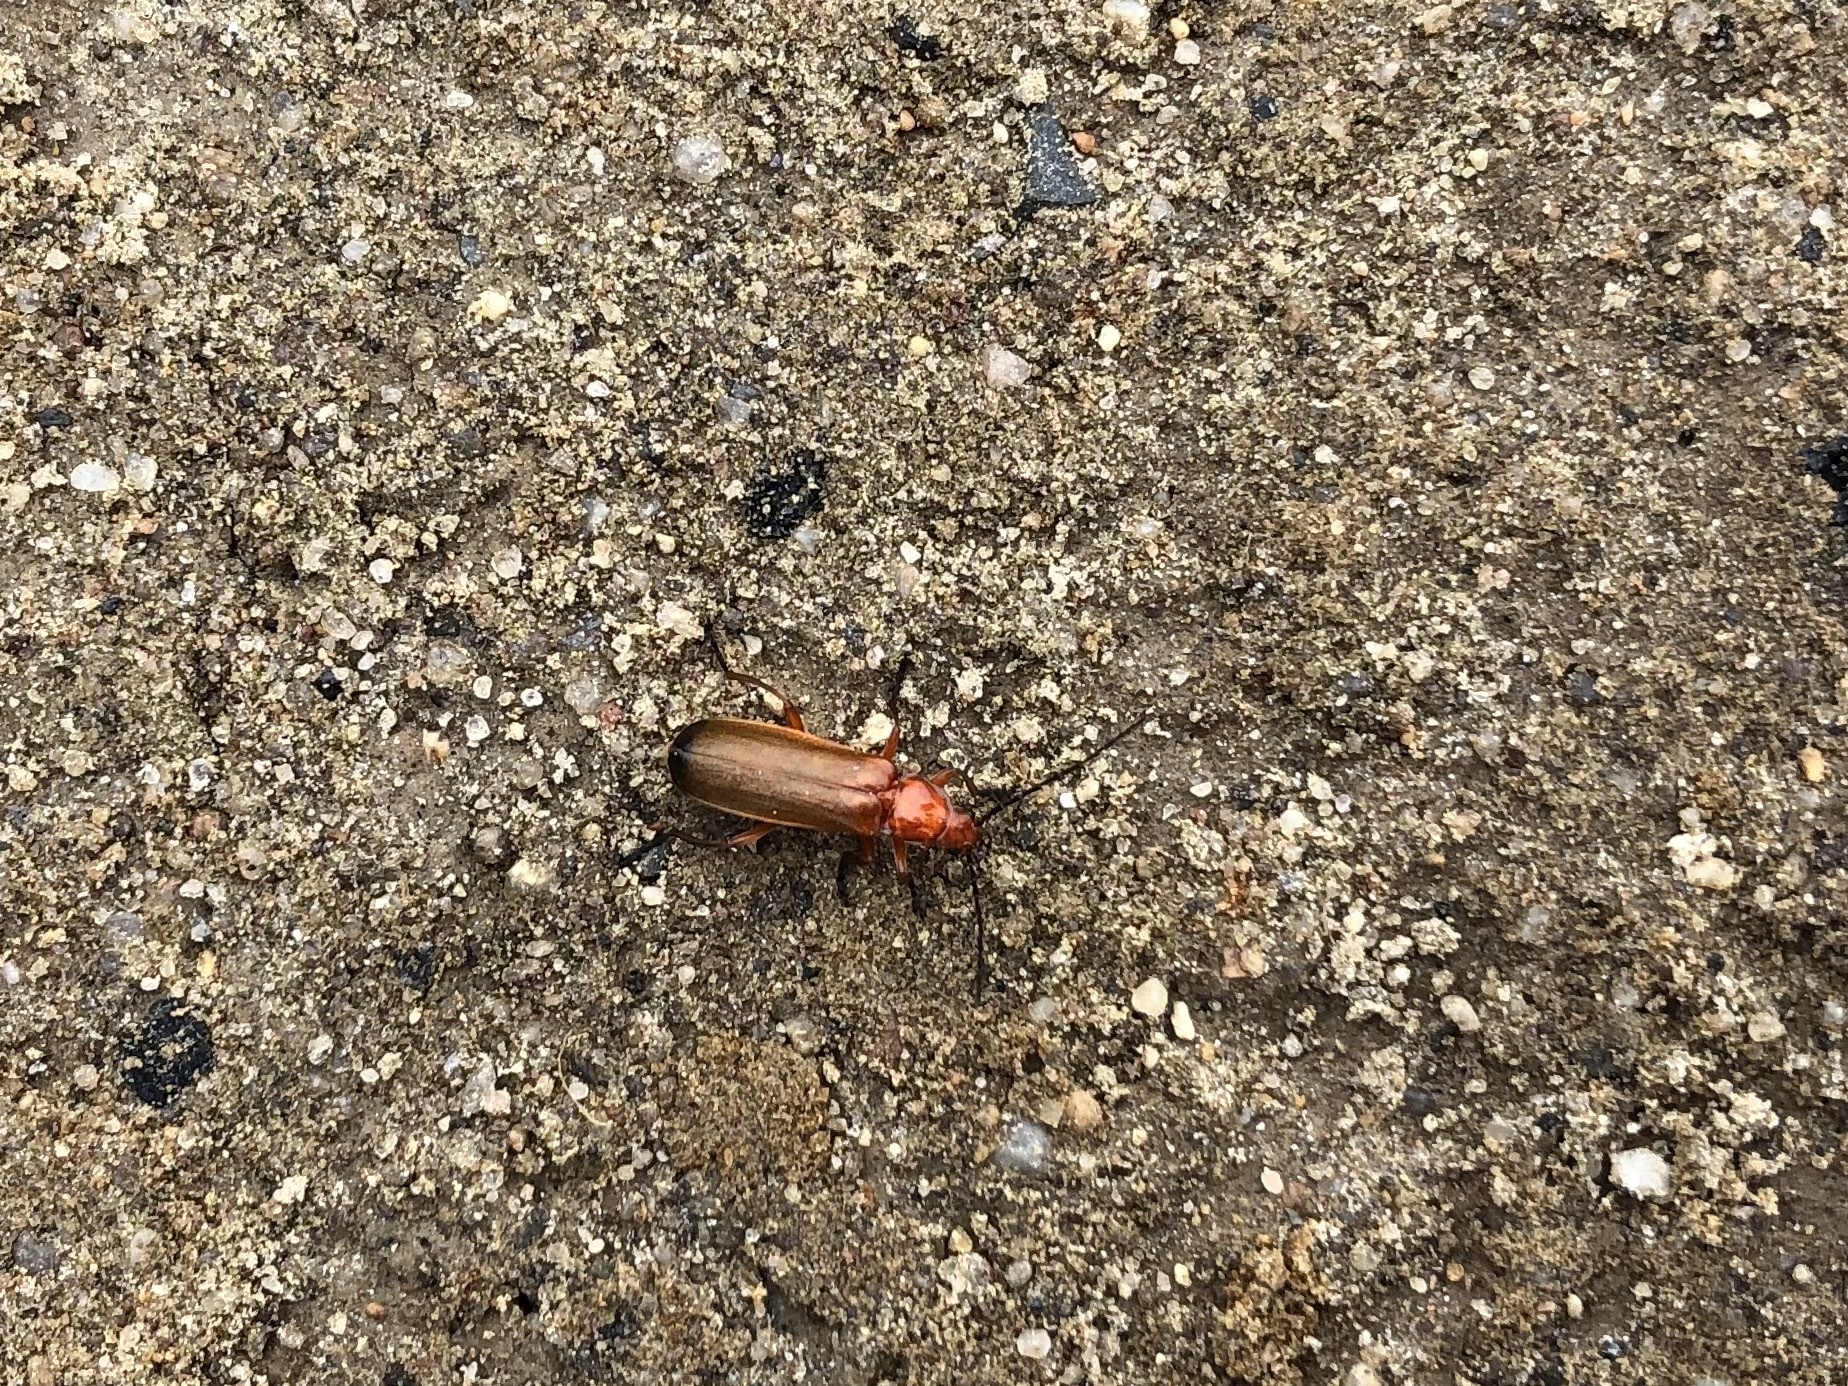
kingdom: Animalia
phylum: Arthropoda
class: Insecta
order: Coleoptera
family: Cantharidae
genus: Rhagonycha
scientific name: Rhagonycha fulva
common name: Common red soldier beetle
